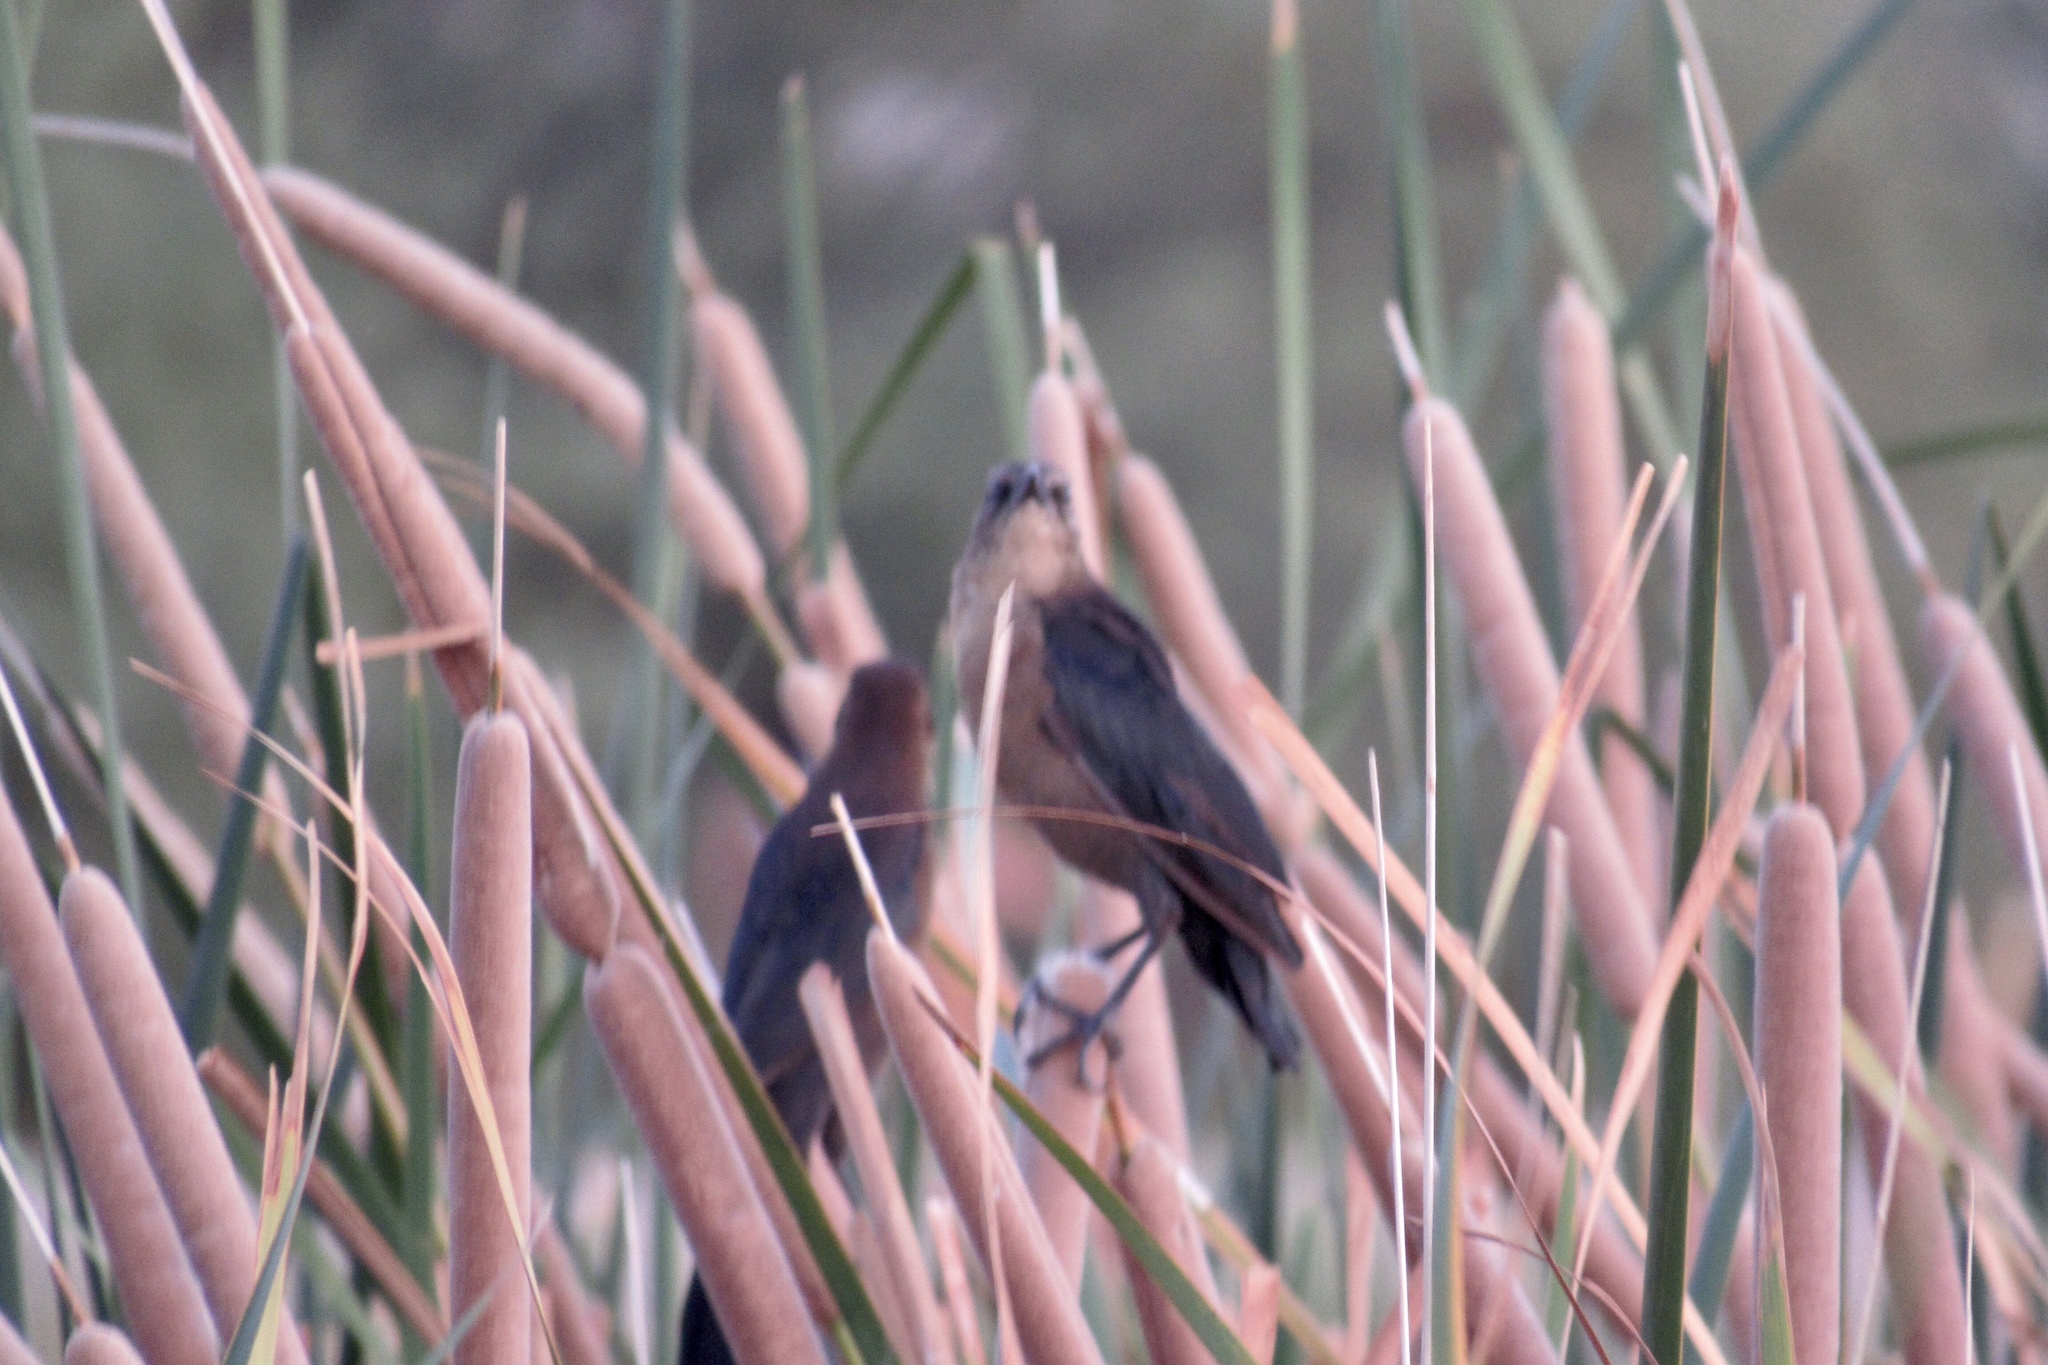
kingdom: Animalia
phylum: Chordata
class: Aves
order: Passeriformes
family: Icteridae
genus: Quiscalus
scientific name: Quiscalus mexicanus
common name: Great-tailed grackle
